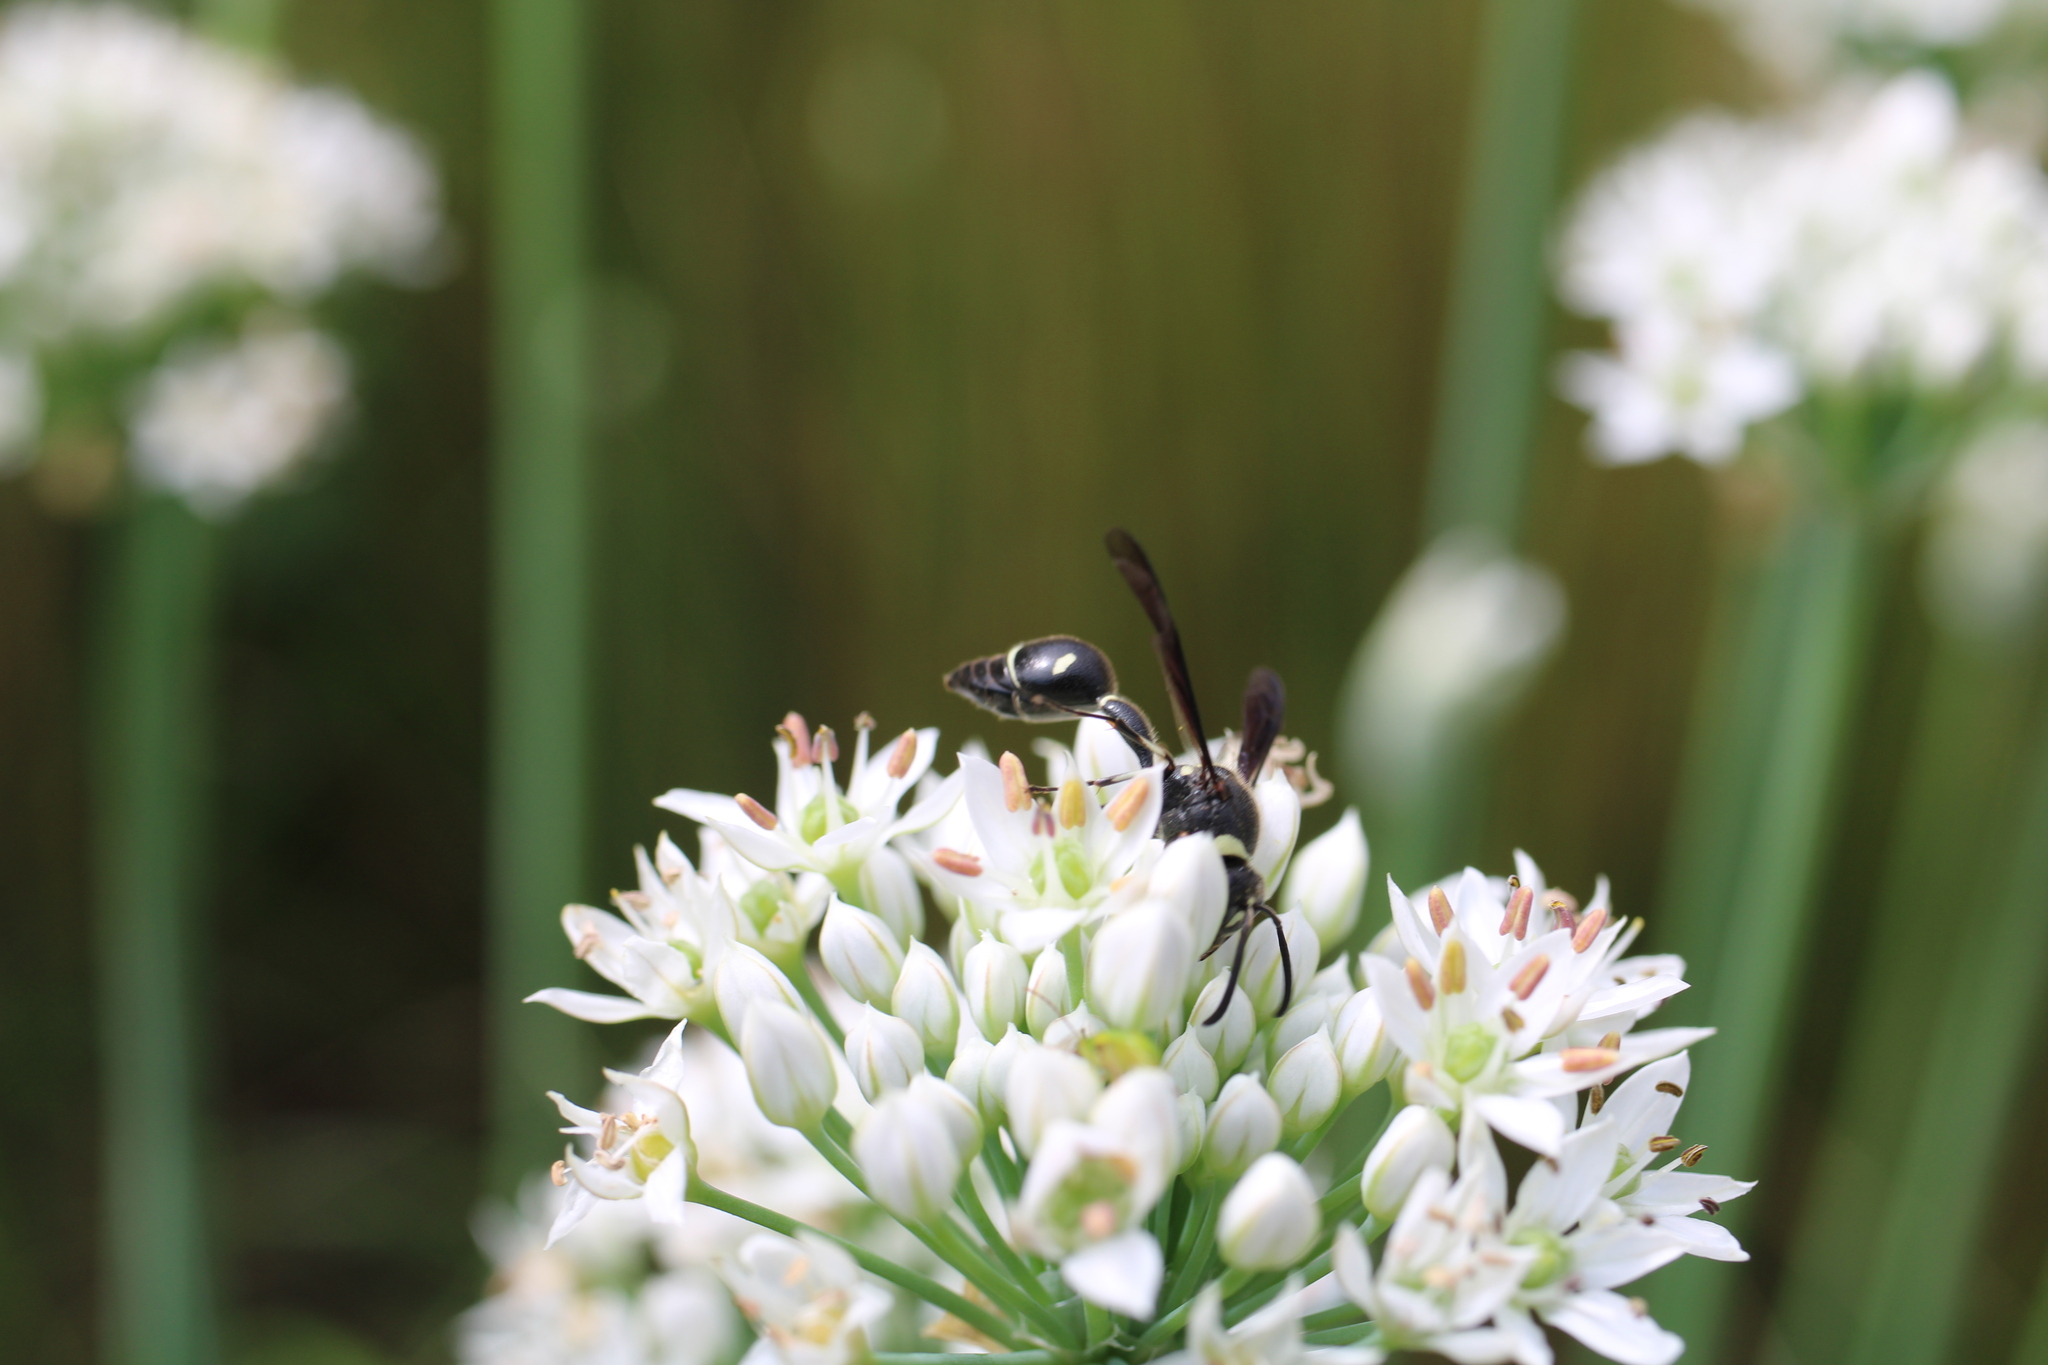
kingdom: Animalia
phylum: Arthropoda
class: Insecta
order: Hymenoptera
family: Vespidae
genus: Eumenes
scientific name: Eumenes fraternus
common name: Fraternal potter wasp
